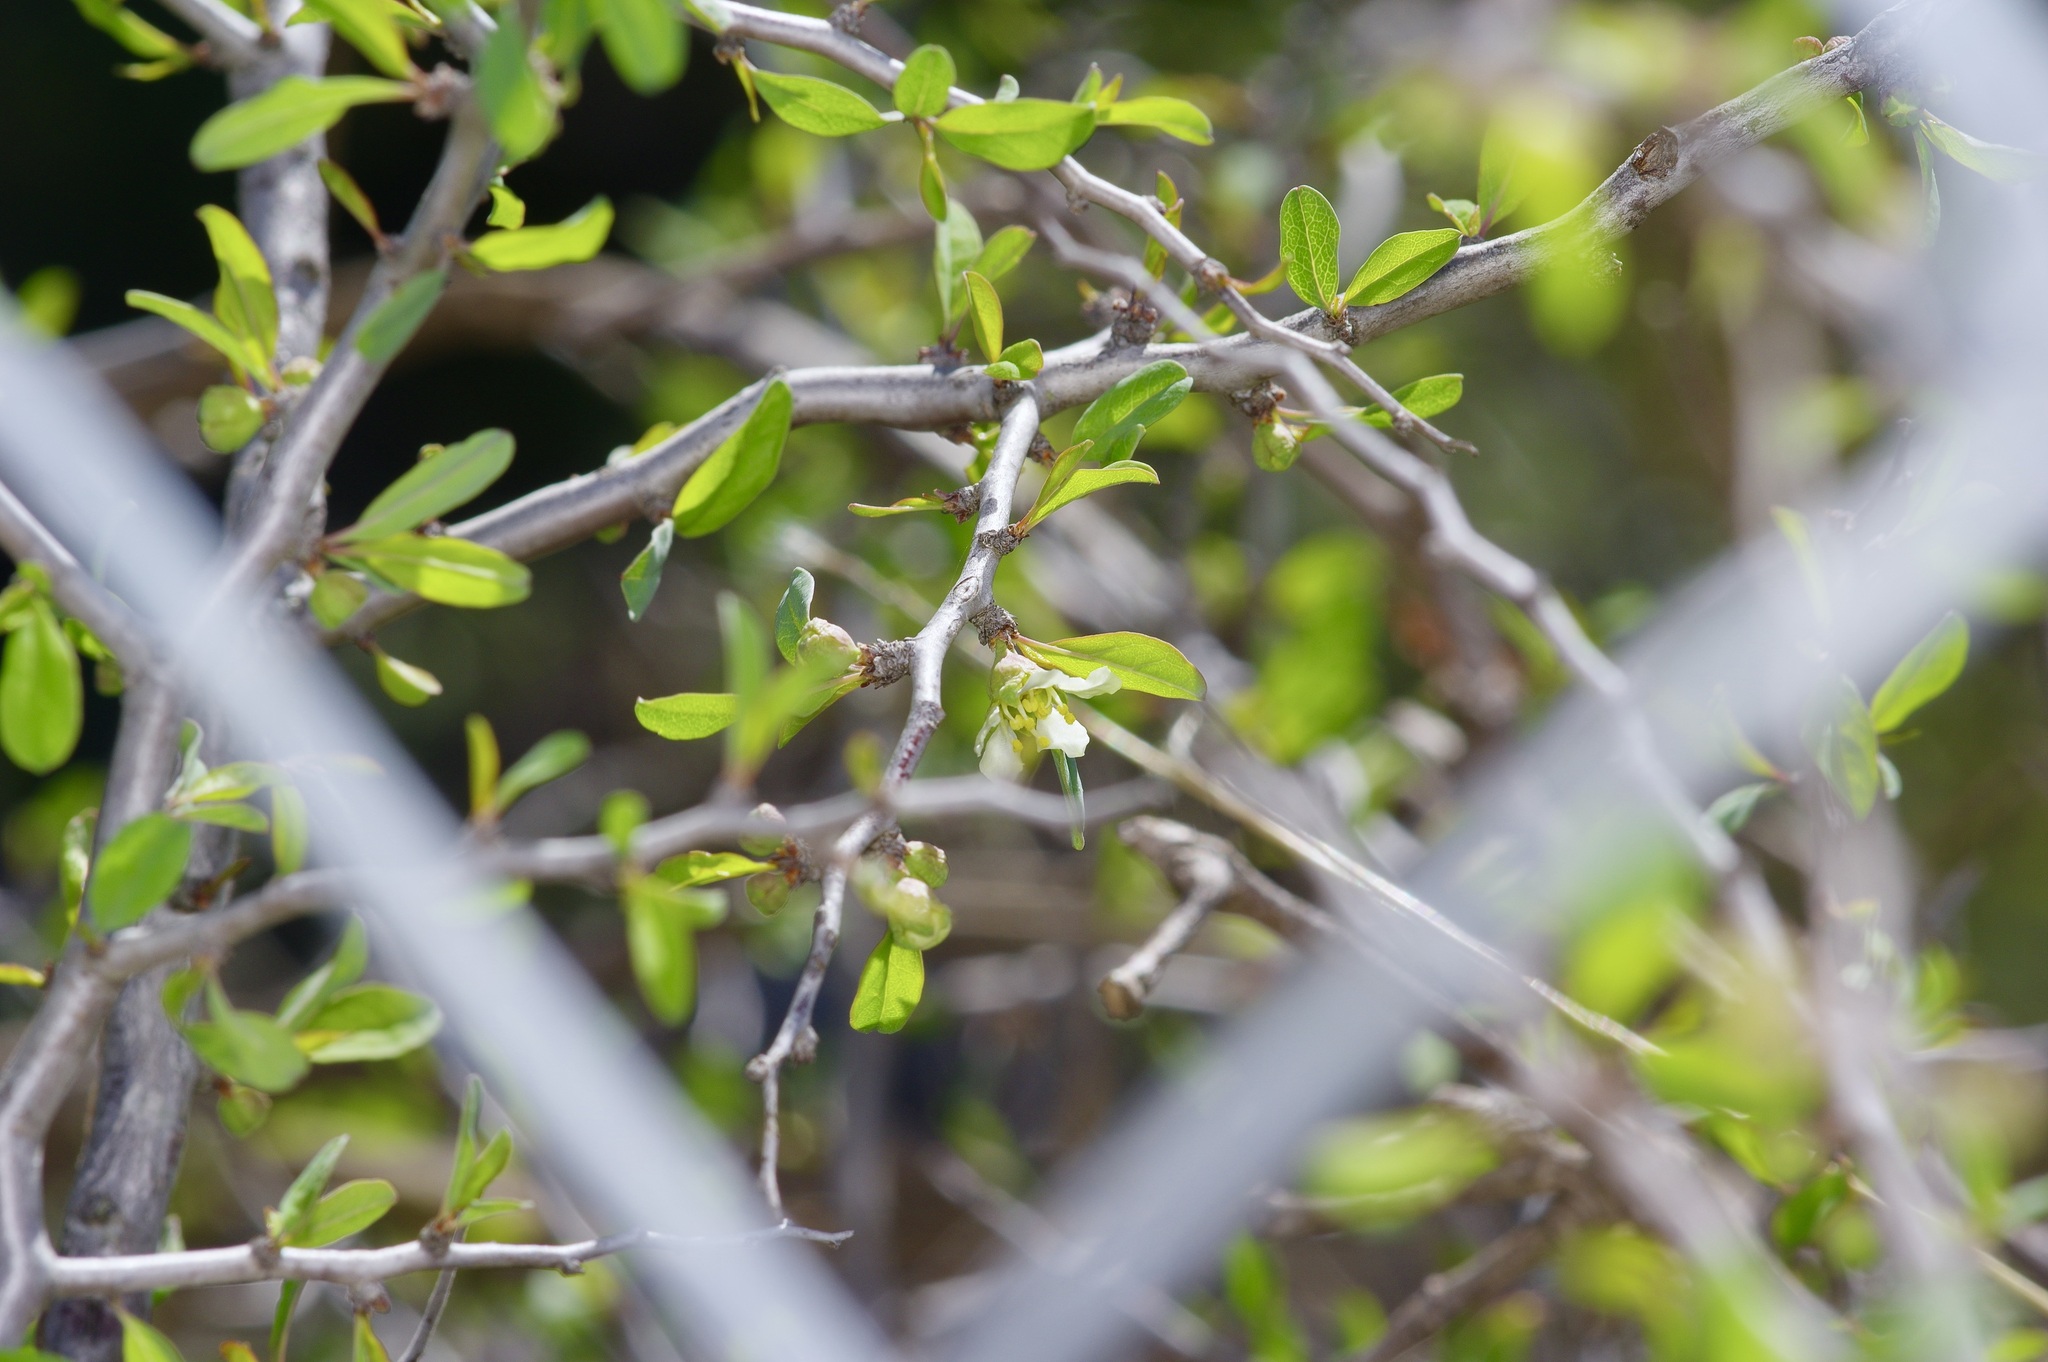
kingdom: Plantae
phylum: Tracheophyta
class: Magnoliopsida
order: Rosales
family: Rosaceae
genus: Prunus
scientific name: Prunus minutiflora
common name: Texas almond
